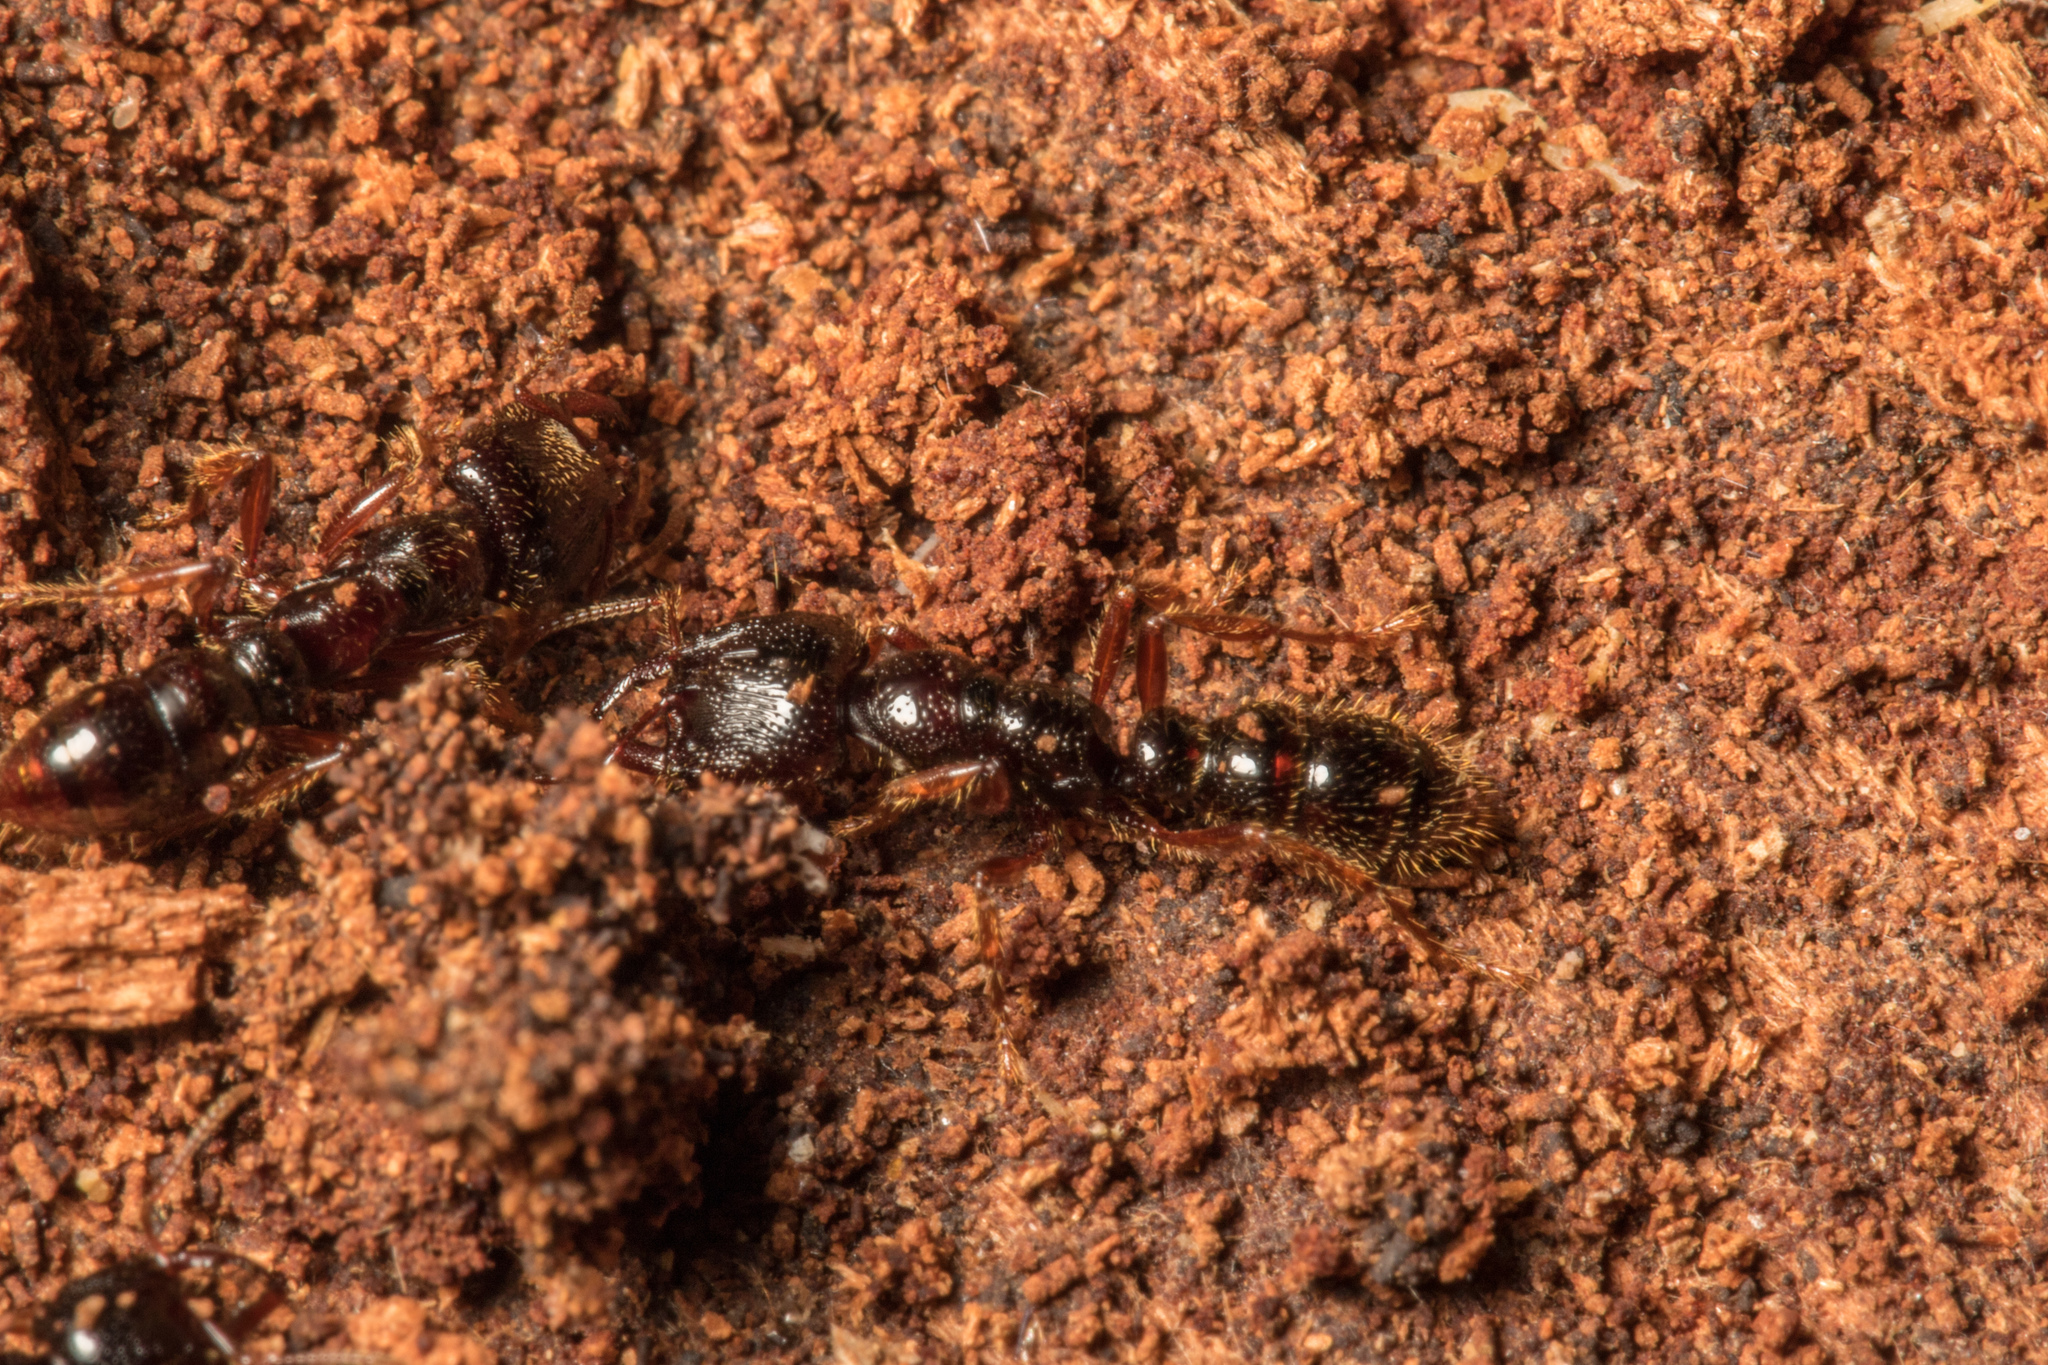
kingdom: Animalia
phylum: Arthropoda
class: Insecta
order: Hymenoptera
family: Formicidae
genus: Amblyopone
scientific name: Amblyopone australis
